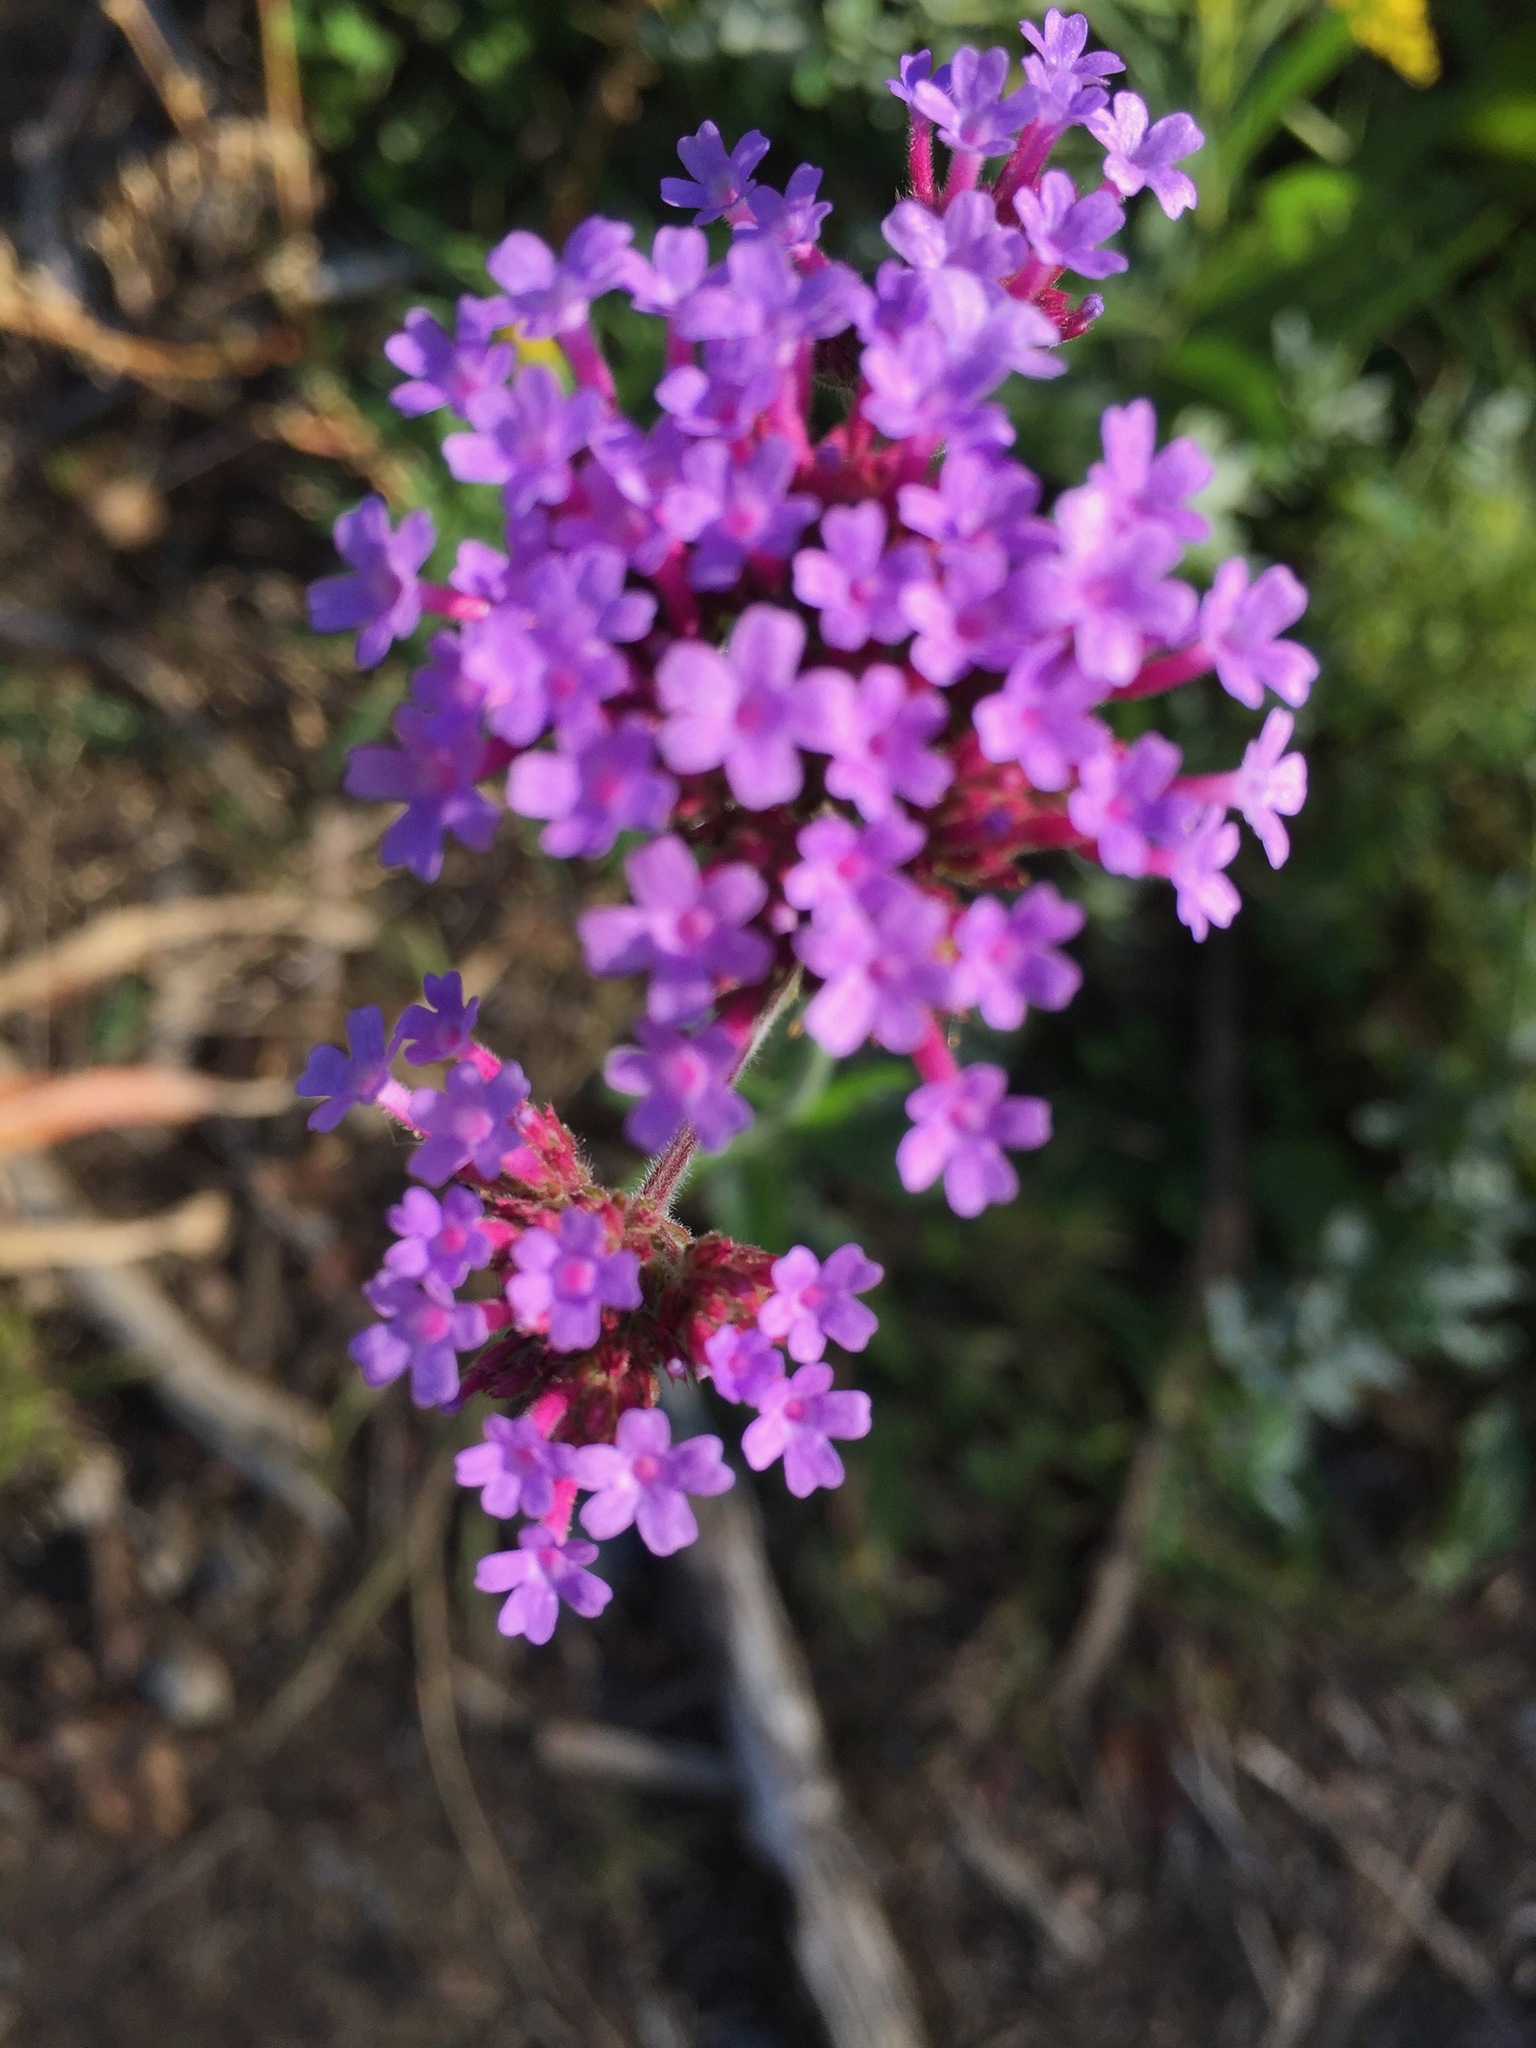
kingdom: Plantae
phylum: Tracheophyta
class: Magnoliopsida
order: Lamiales
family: Verbenaceae
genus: Verbena
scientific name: Verbena bonariensis
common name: Purpletop vervain
